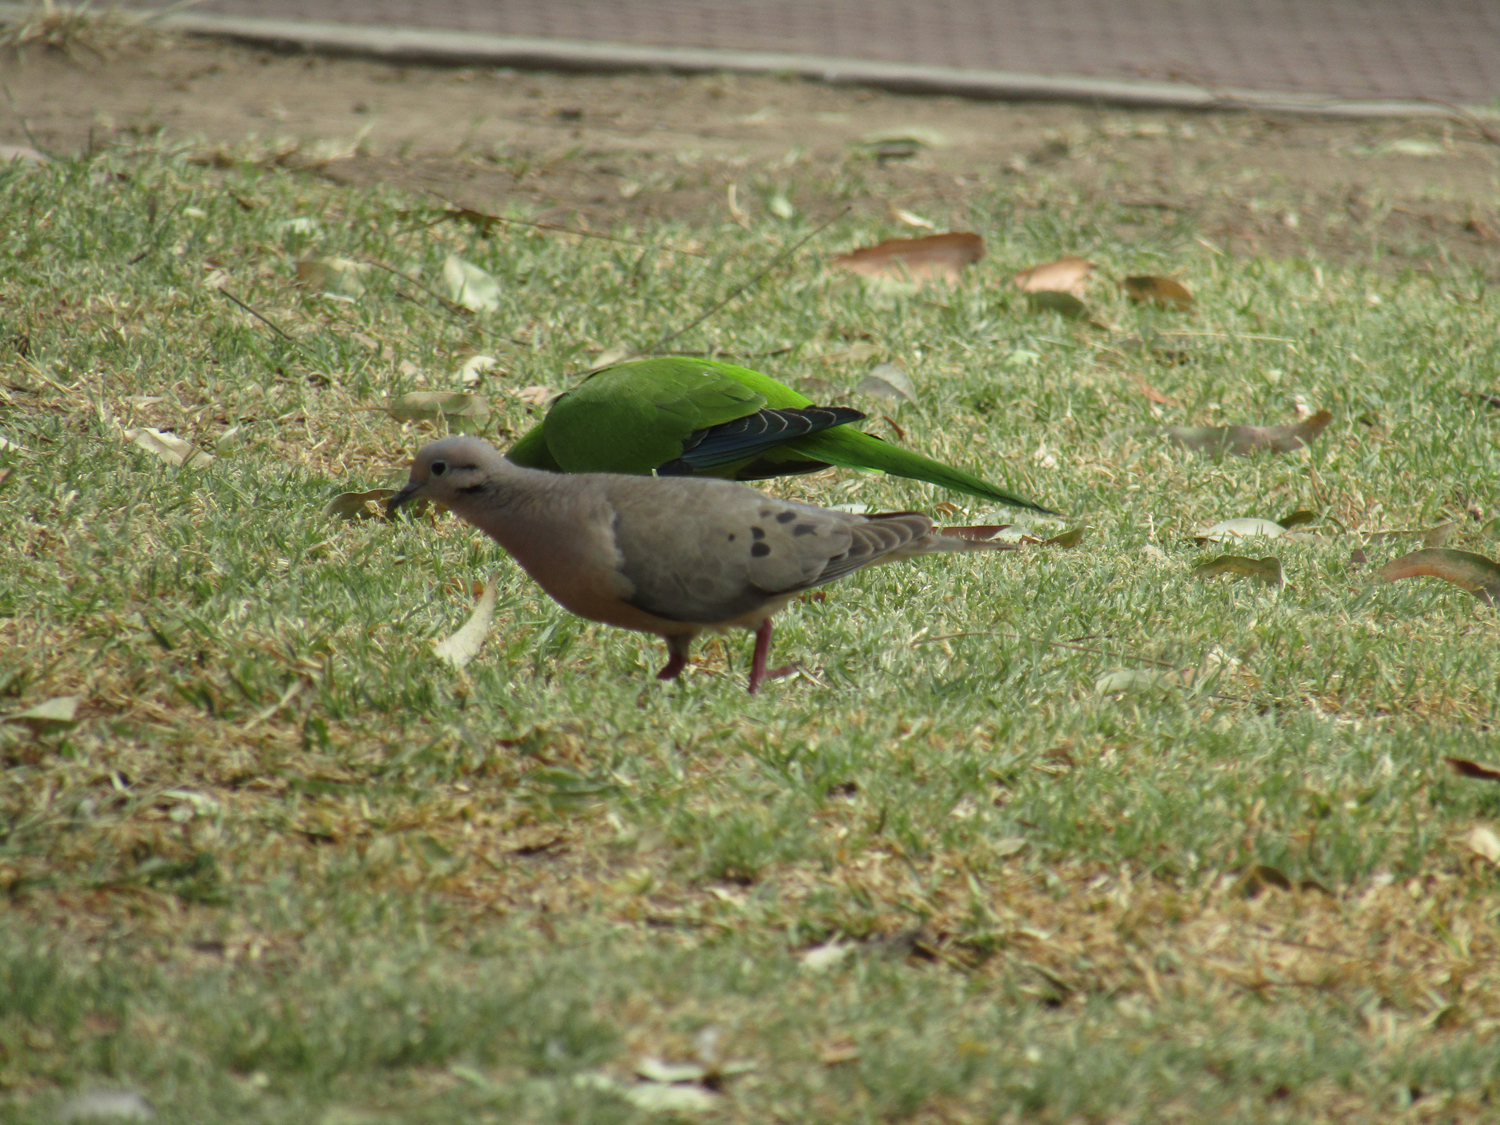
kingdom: Animalia
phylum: Chordata
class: Aves
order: Columbiformes
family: Columbidae
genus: Zenaida
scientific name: Zenaida auriculata
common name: Eared dove
